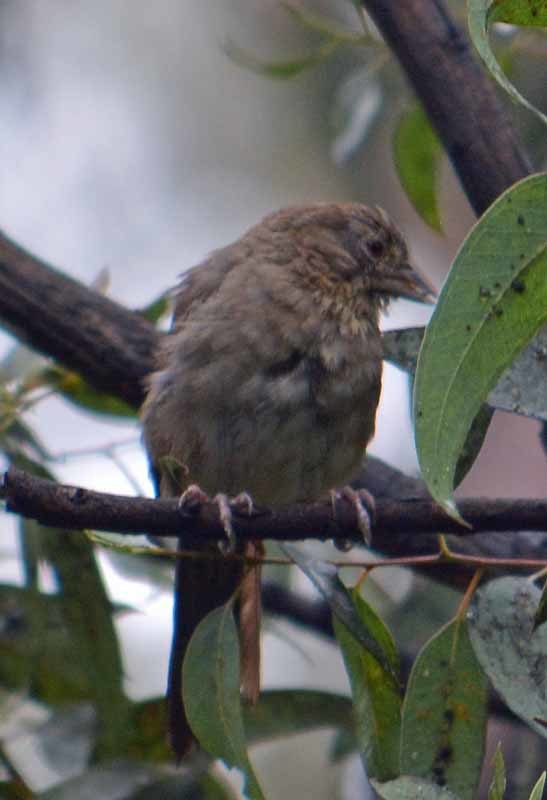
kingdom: Animalia
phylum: Chordata
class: Aves
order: Passeriformes
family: Passerellidae
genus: Melozone
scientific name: Melozone fusca
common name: Canyon towhee
